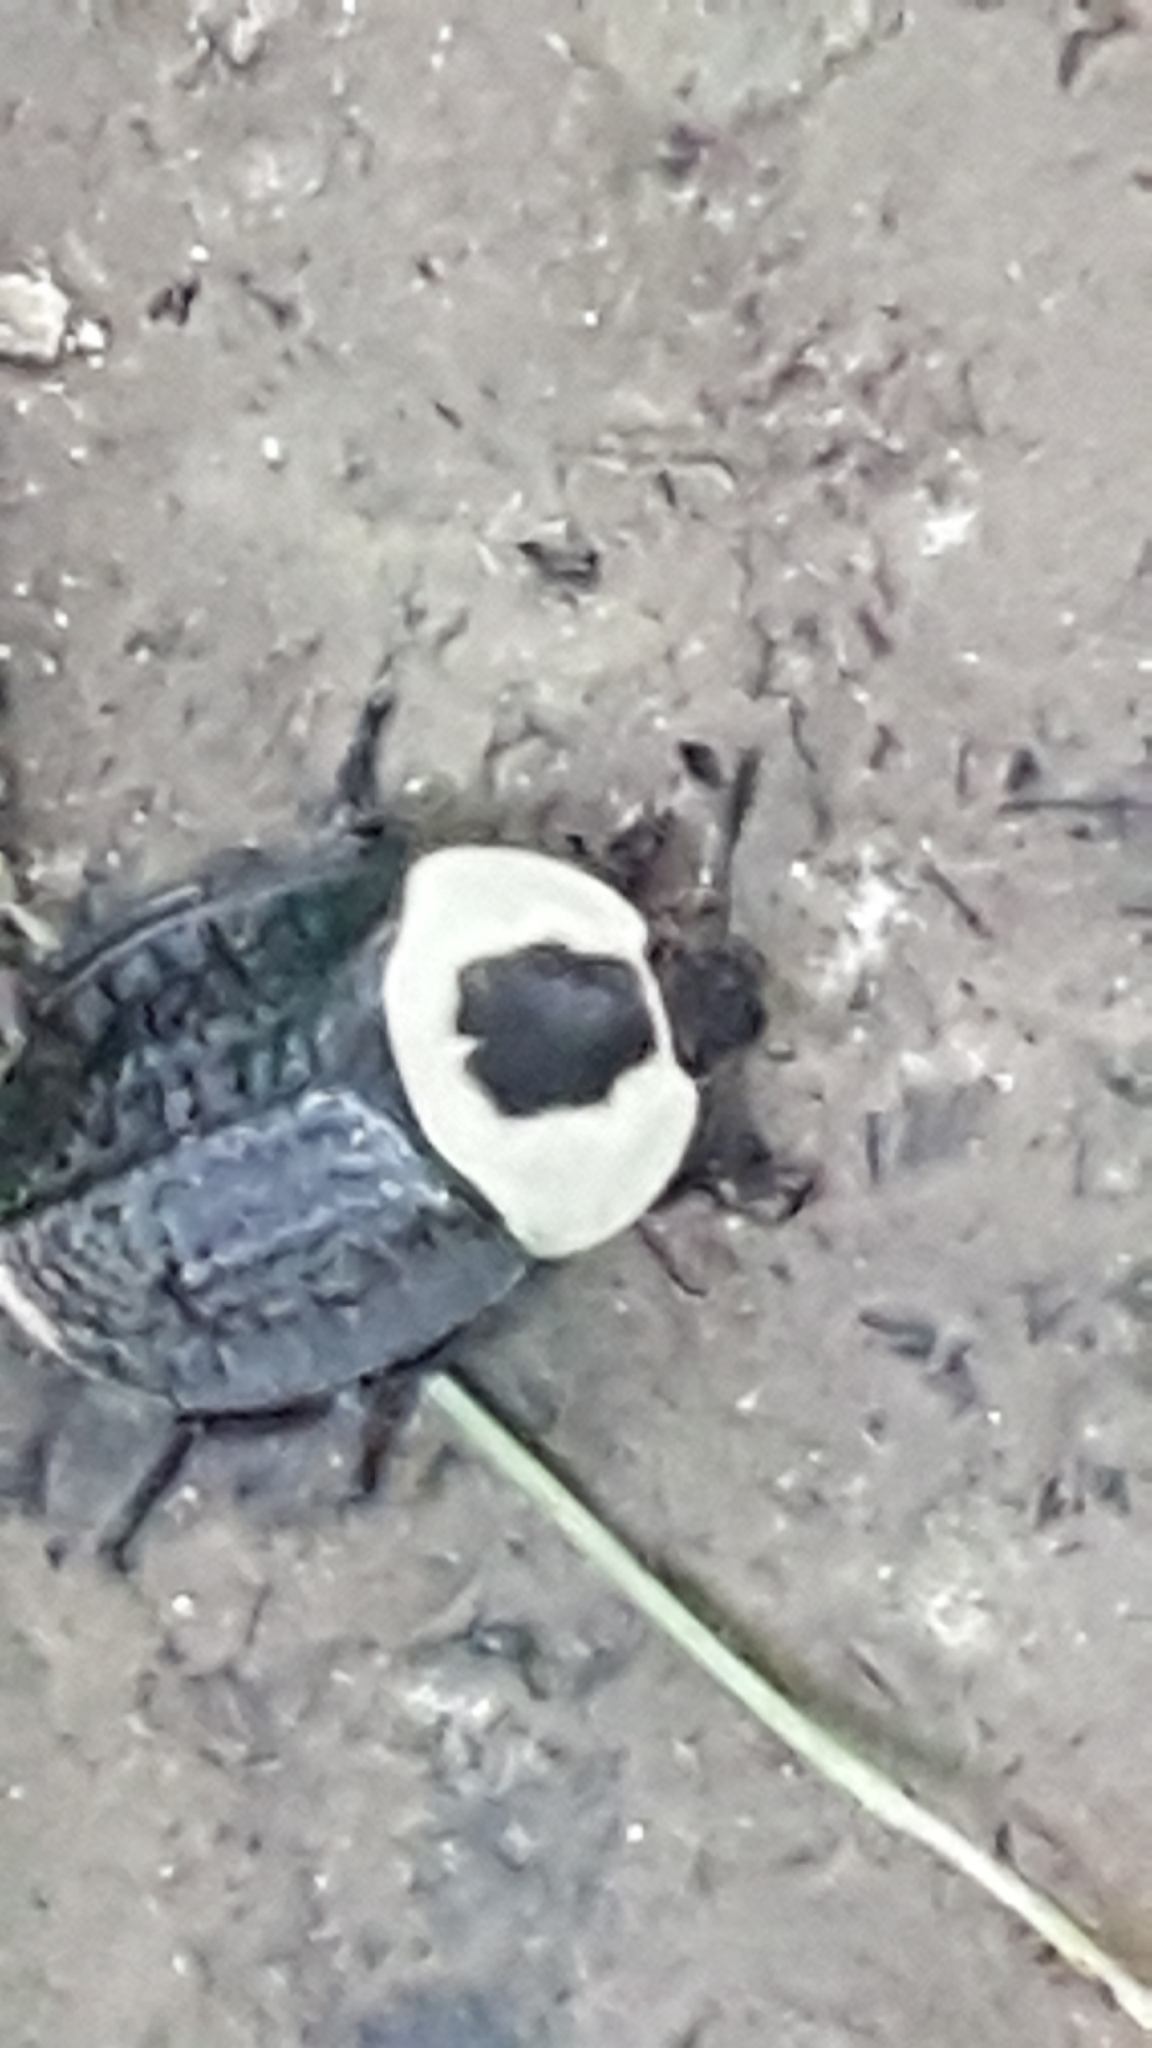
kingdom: Animalia
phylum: Arthropoda
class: Insecta
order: Coleoptera
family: Staphylinidae
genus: Necrophila
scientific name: Necrophila americana
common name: American carrion beetle
